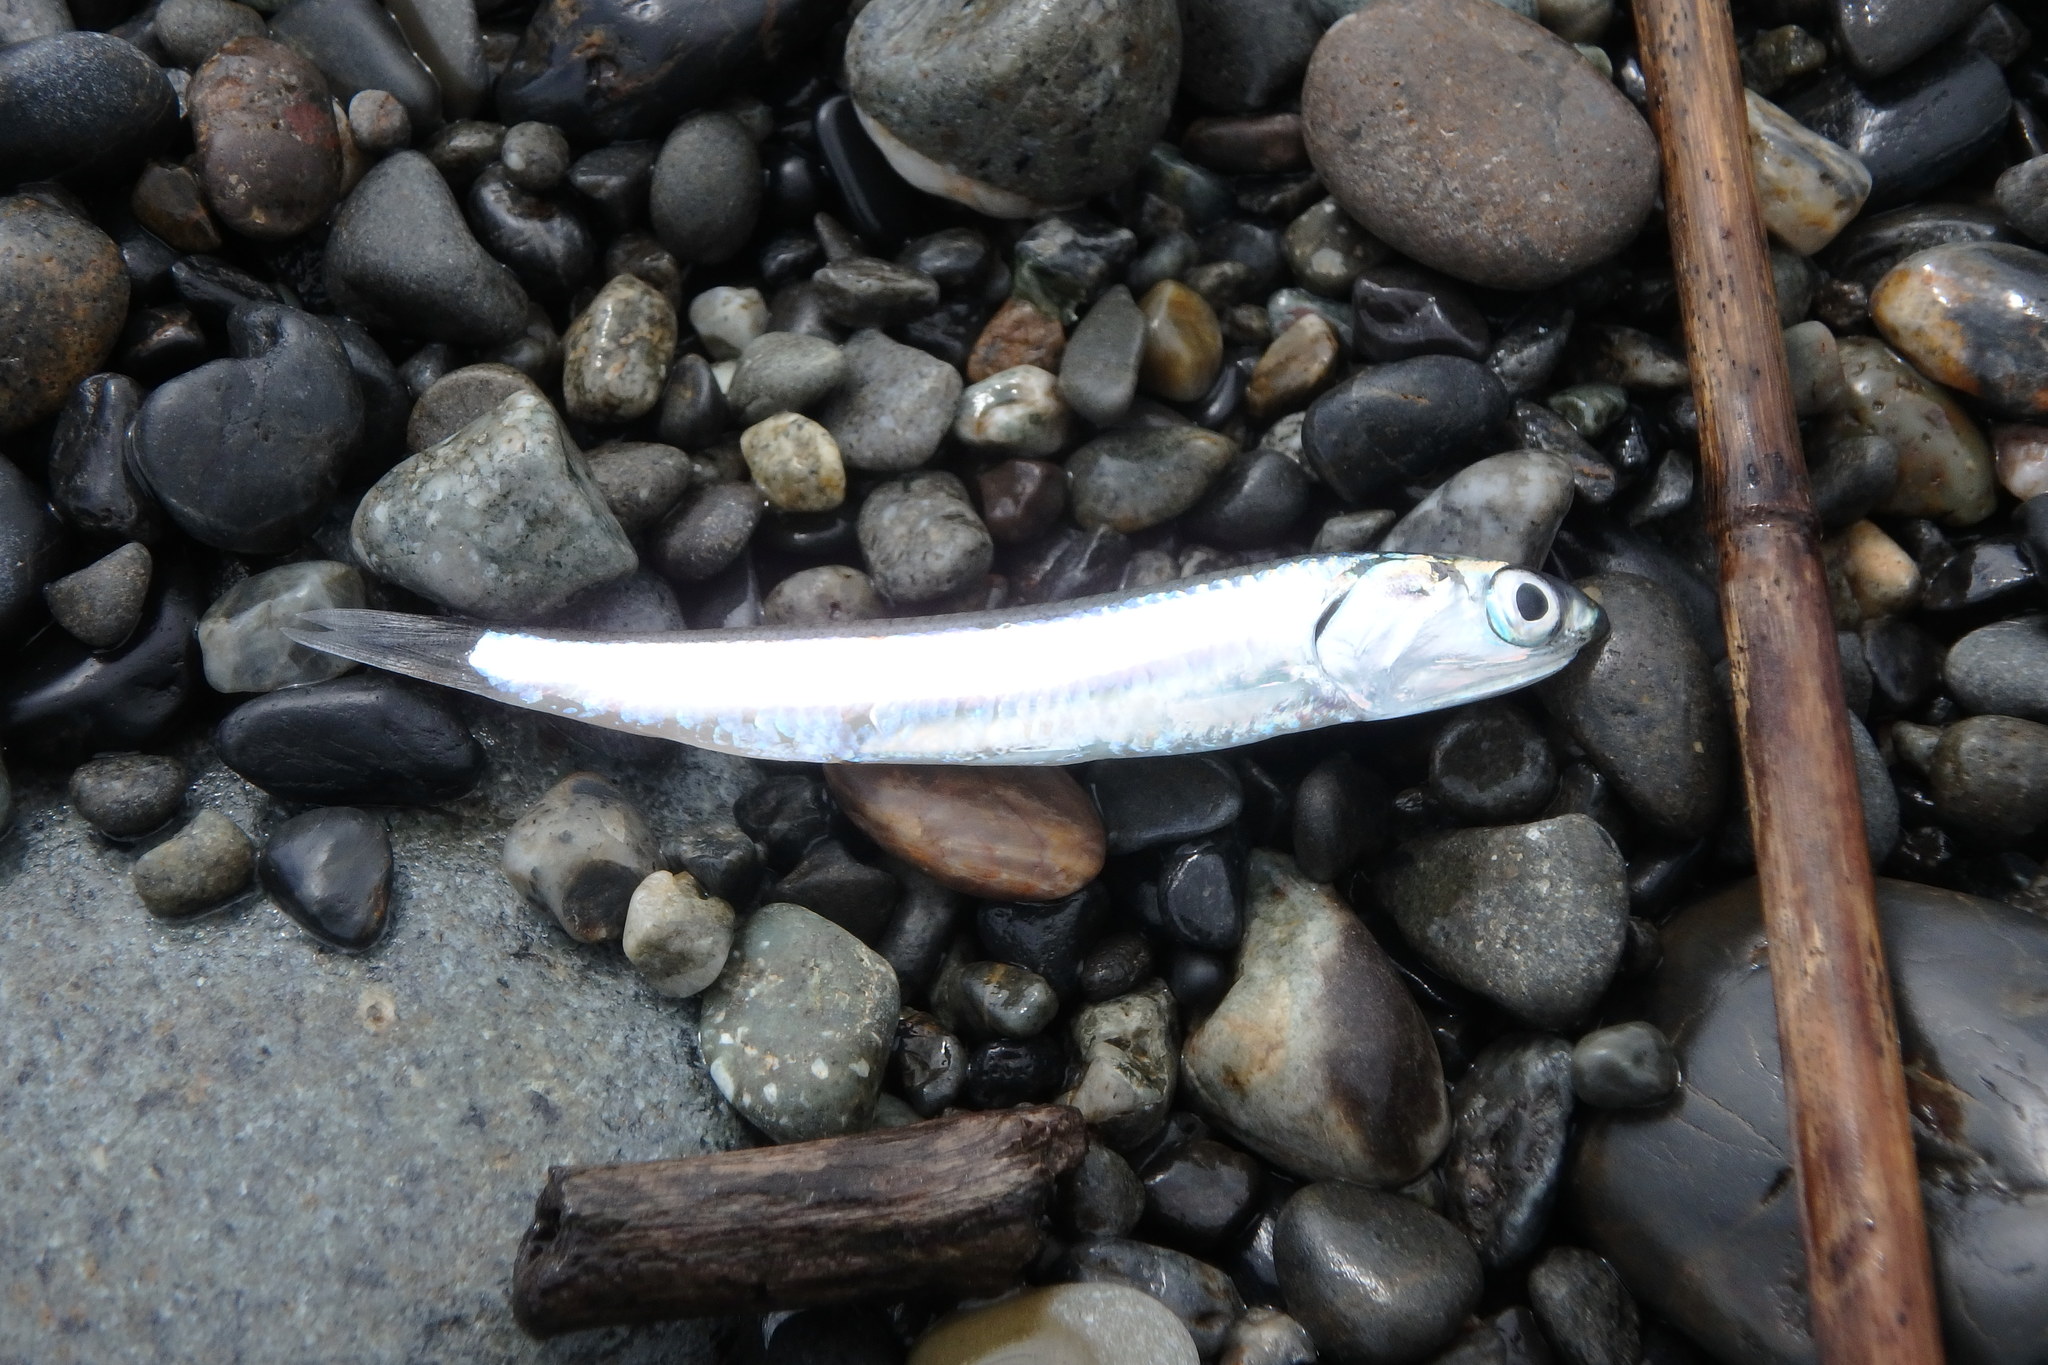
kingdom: Animalia
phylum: Chordata
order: Clupeiformes
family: Engraulidae
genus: Engraulis
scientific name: Engraulis japonicus
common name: Japanese anchovy
